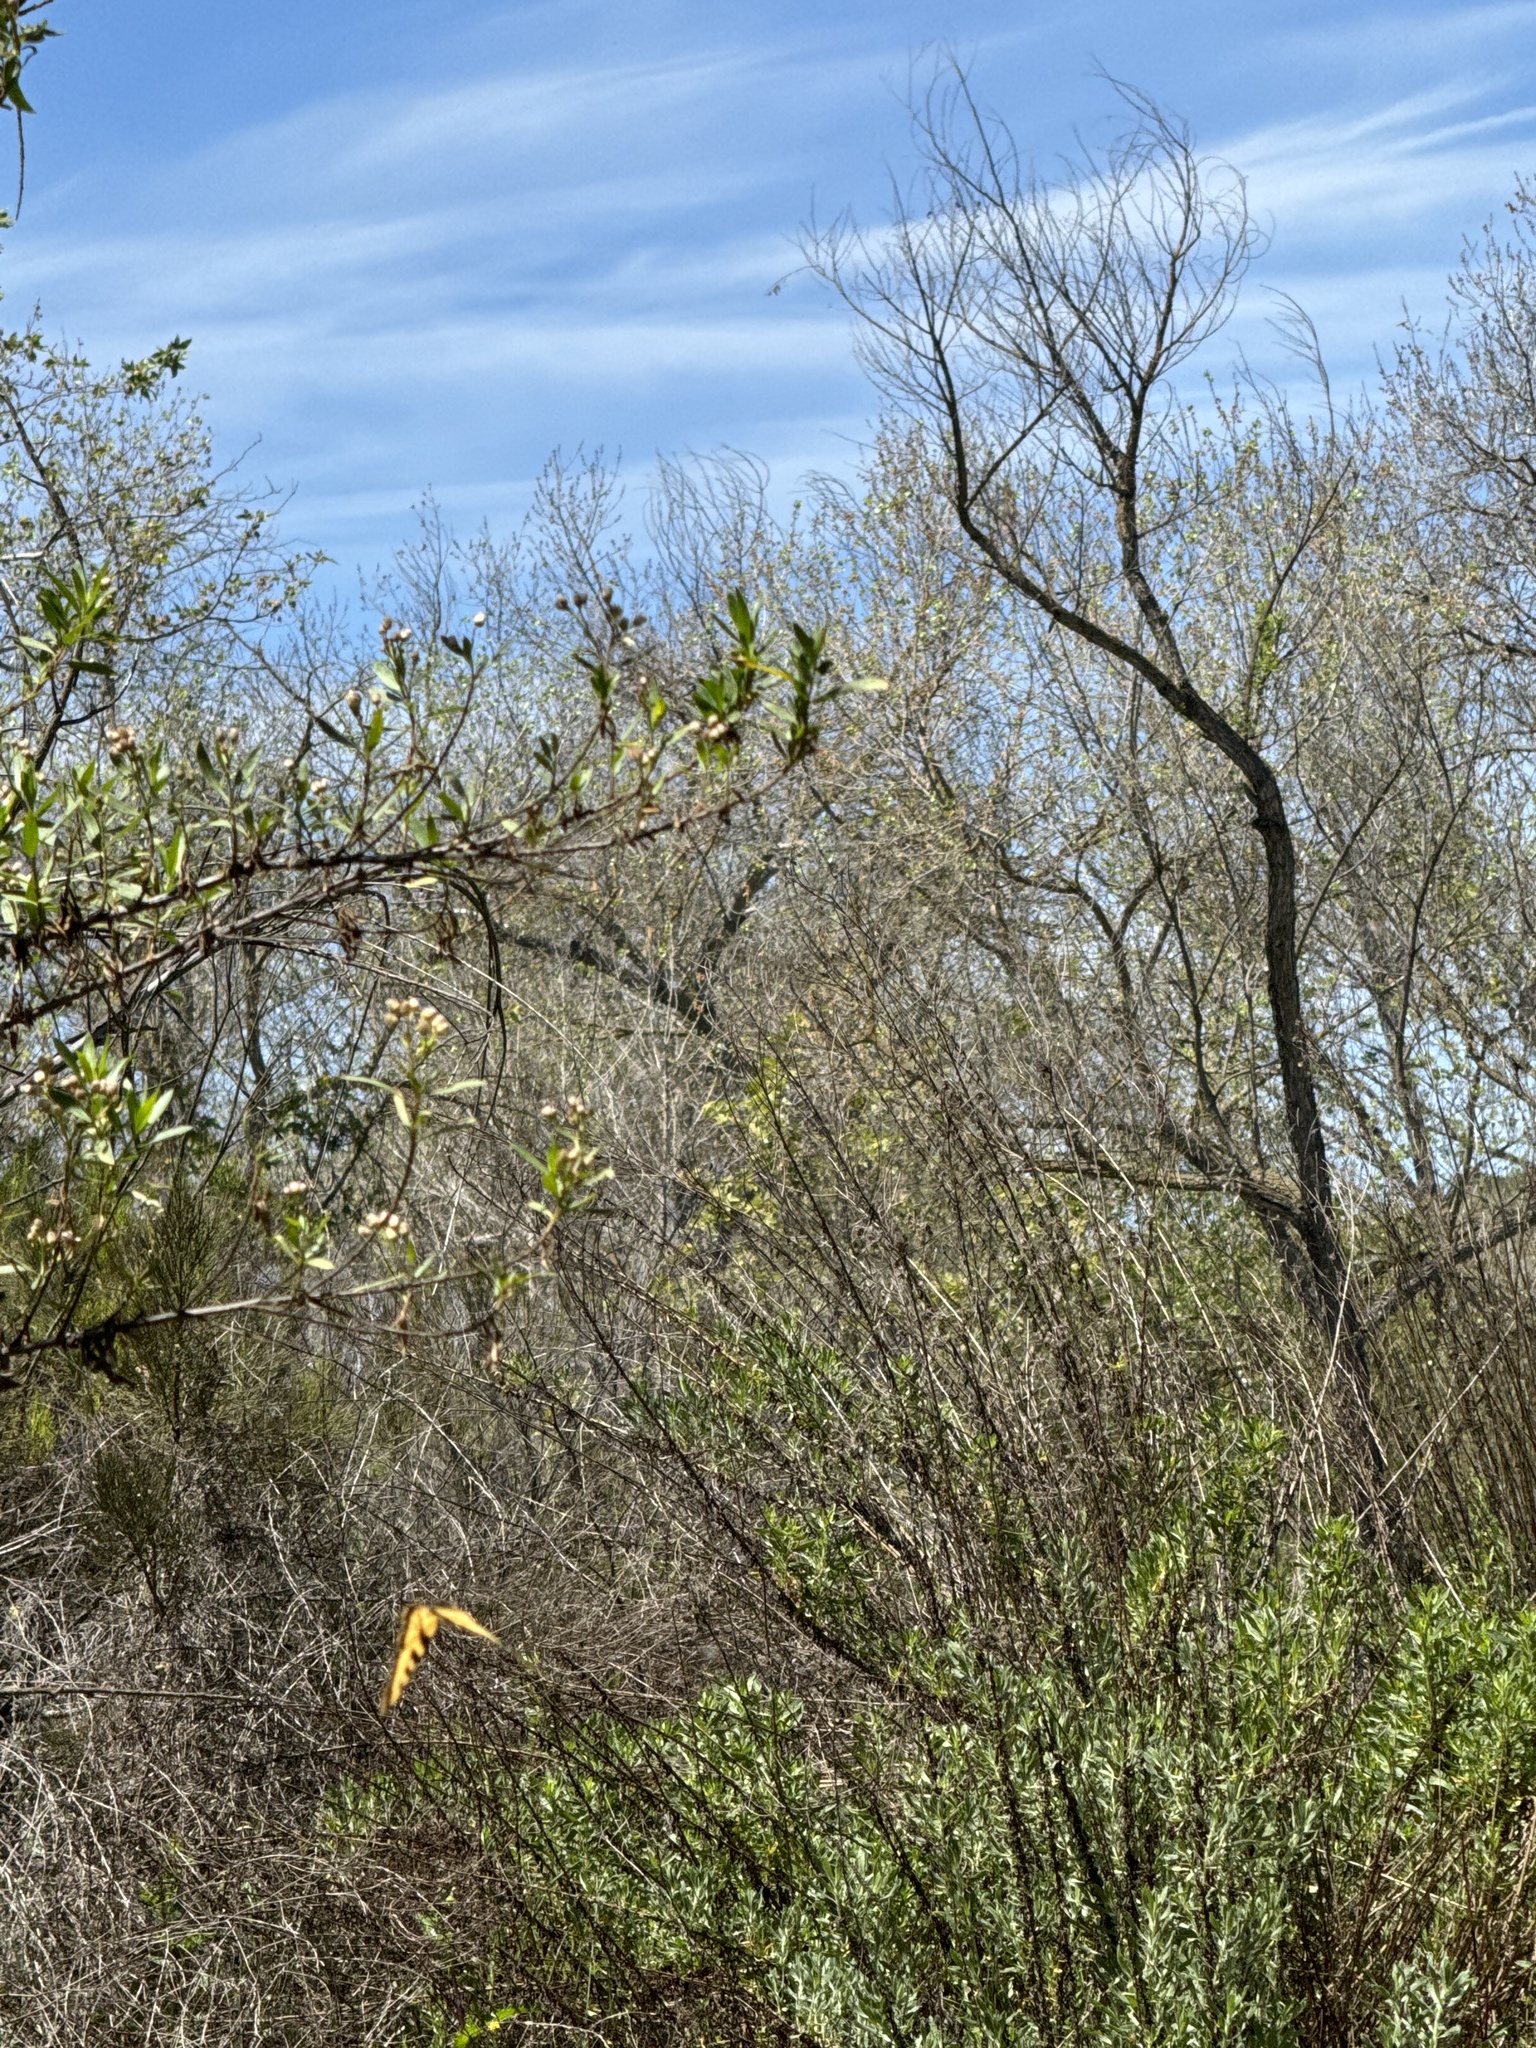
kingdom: Animalia
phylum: Arthropoda
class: Insecta
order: Lepidoptera
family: Papilionidae
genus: Papilio
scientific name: Papilio rutulus
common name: Western tiger swallowtail
